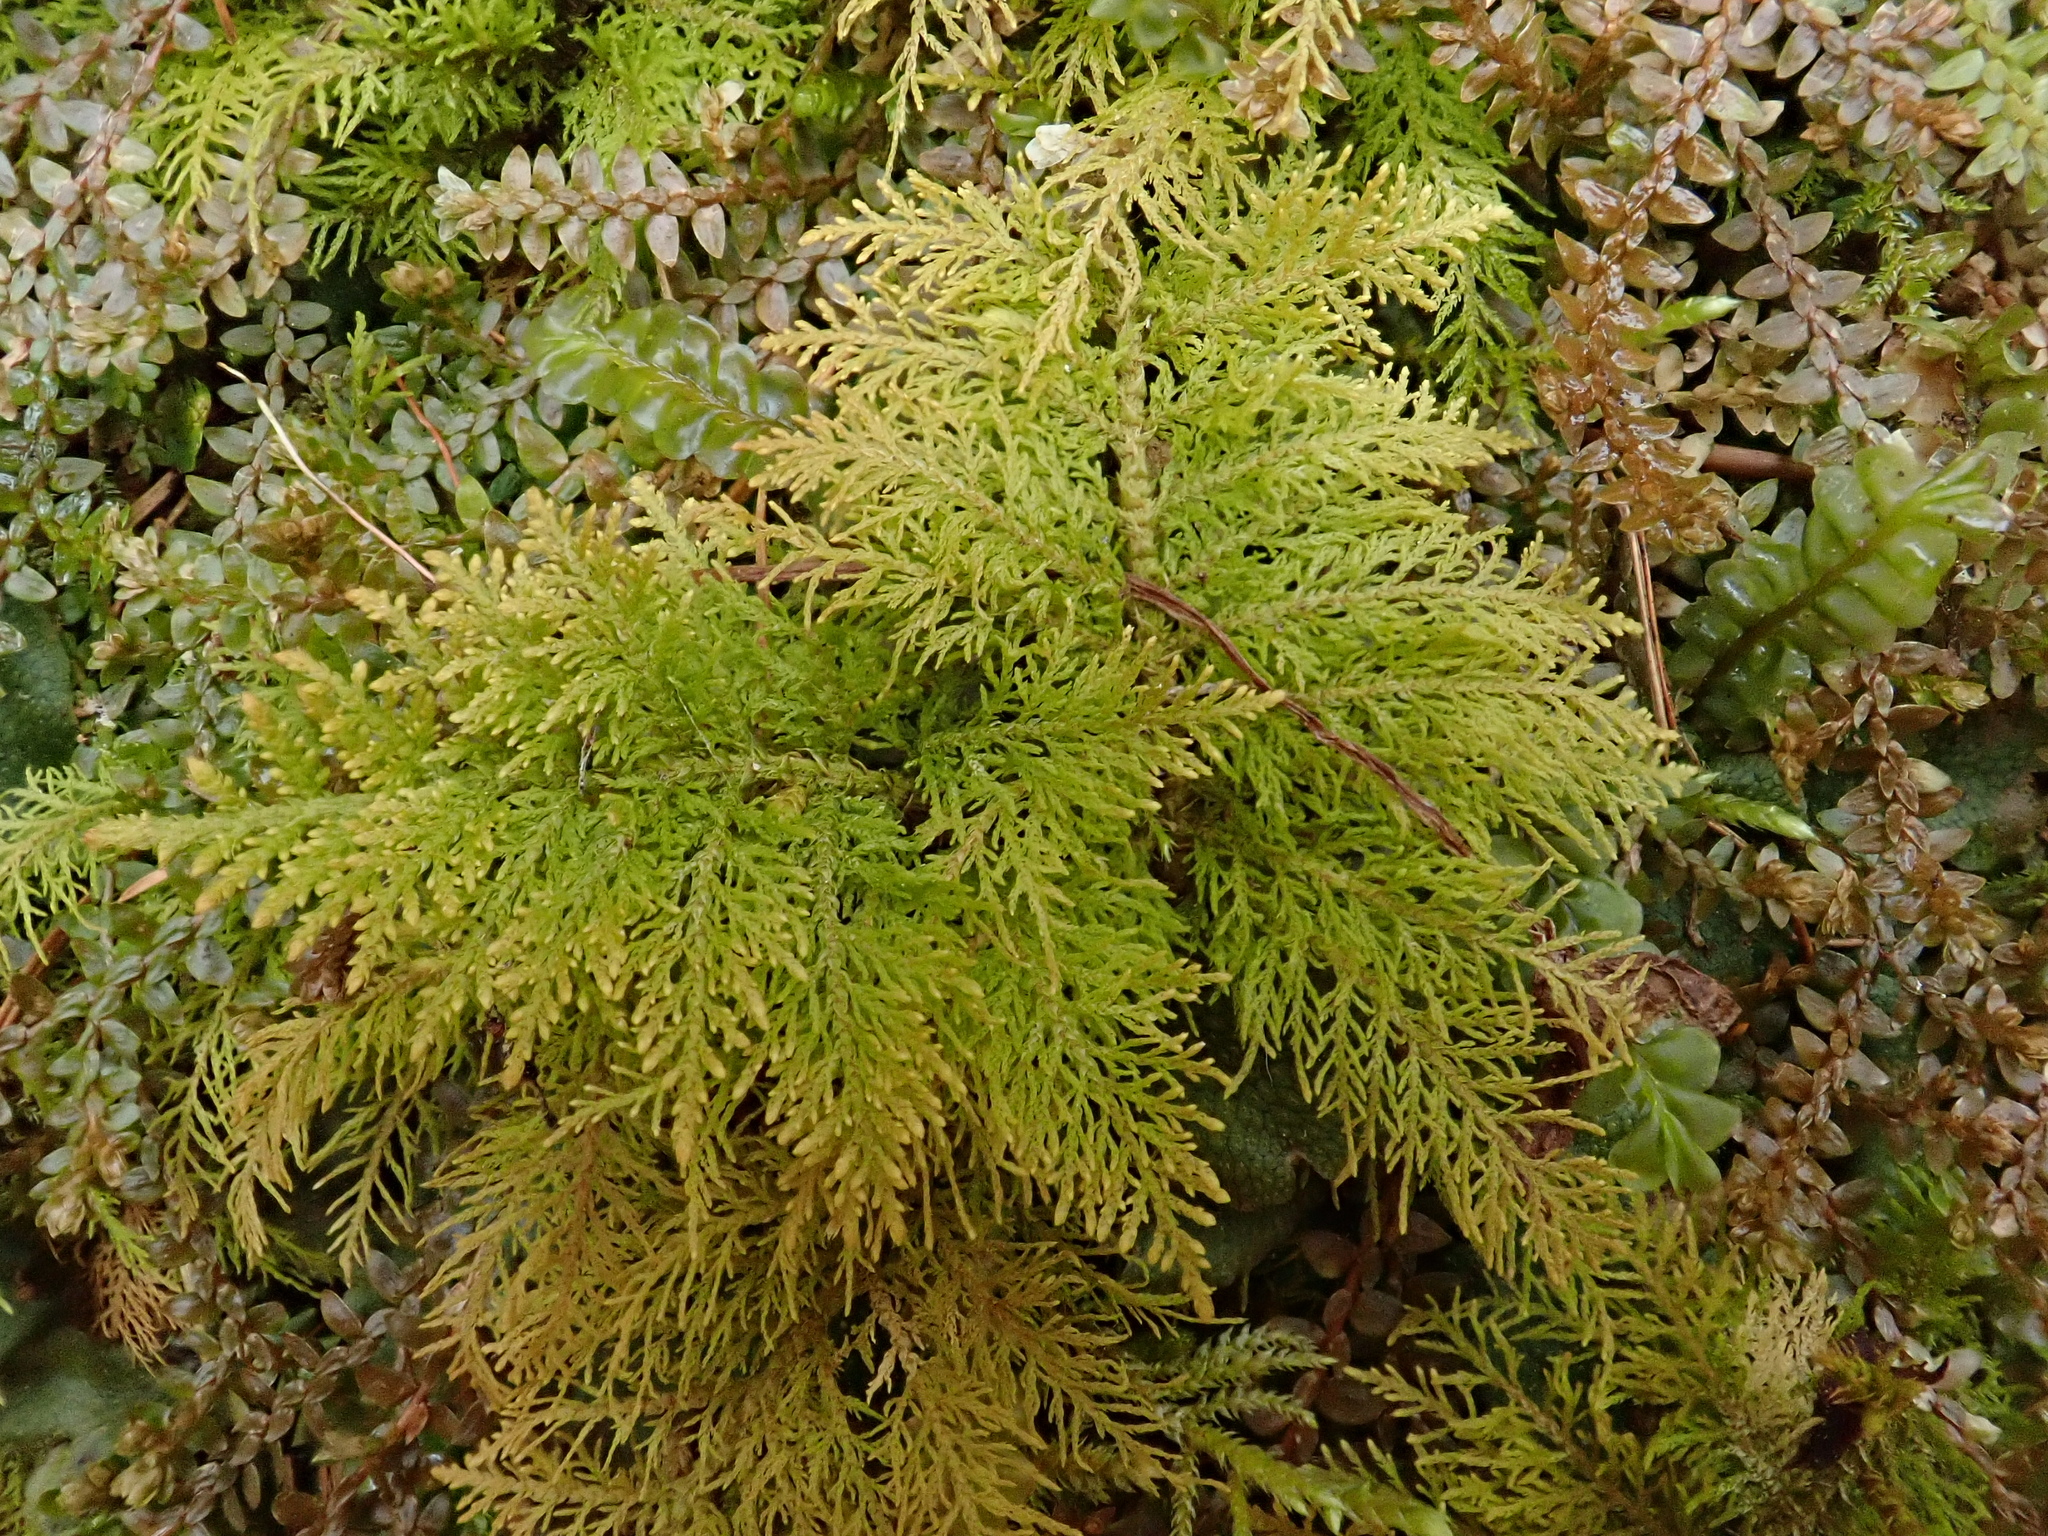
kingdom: Plantae
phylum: Bryophyta
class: Bryopsida
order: Hypnales
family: Thuidiaceae
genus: Thuidium
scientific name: Thuidium tamariscinum
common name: Common tamarisk-moss
